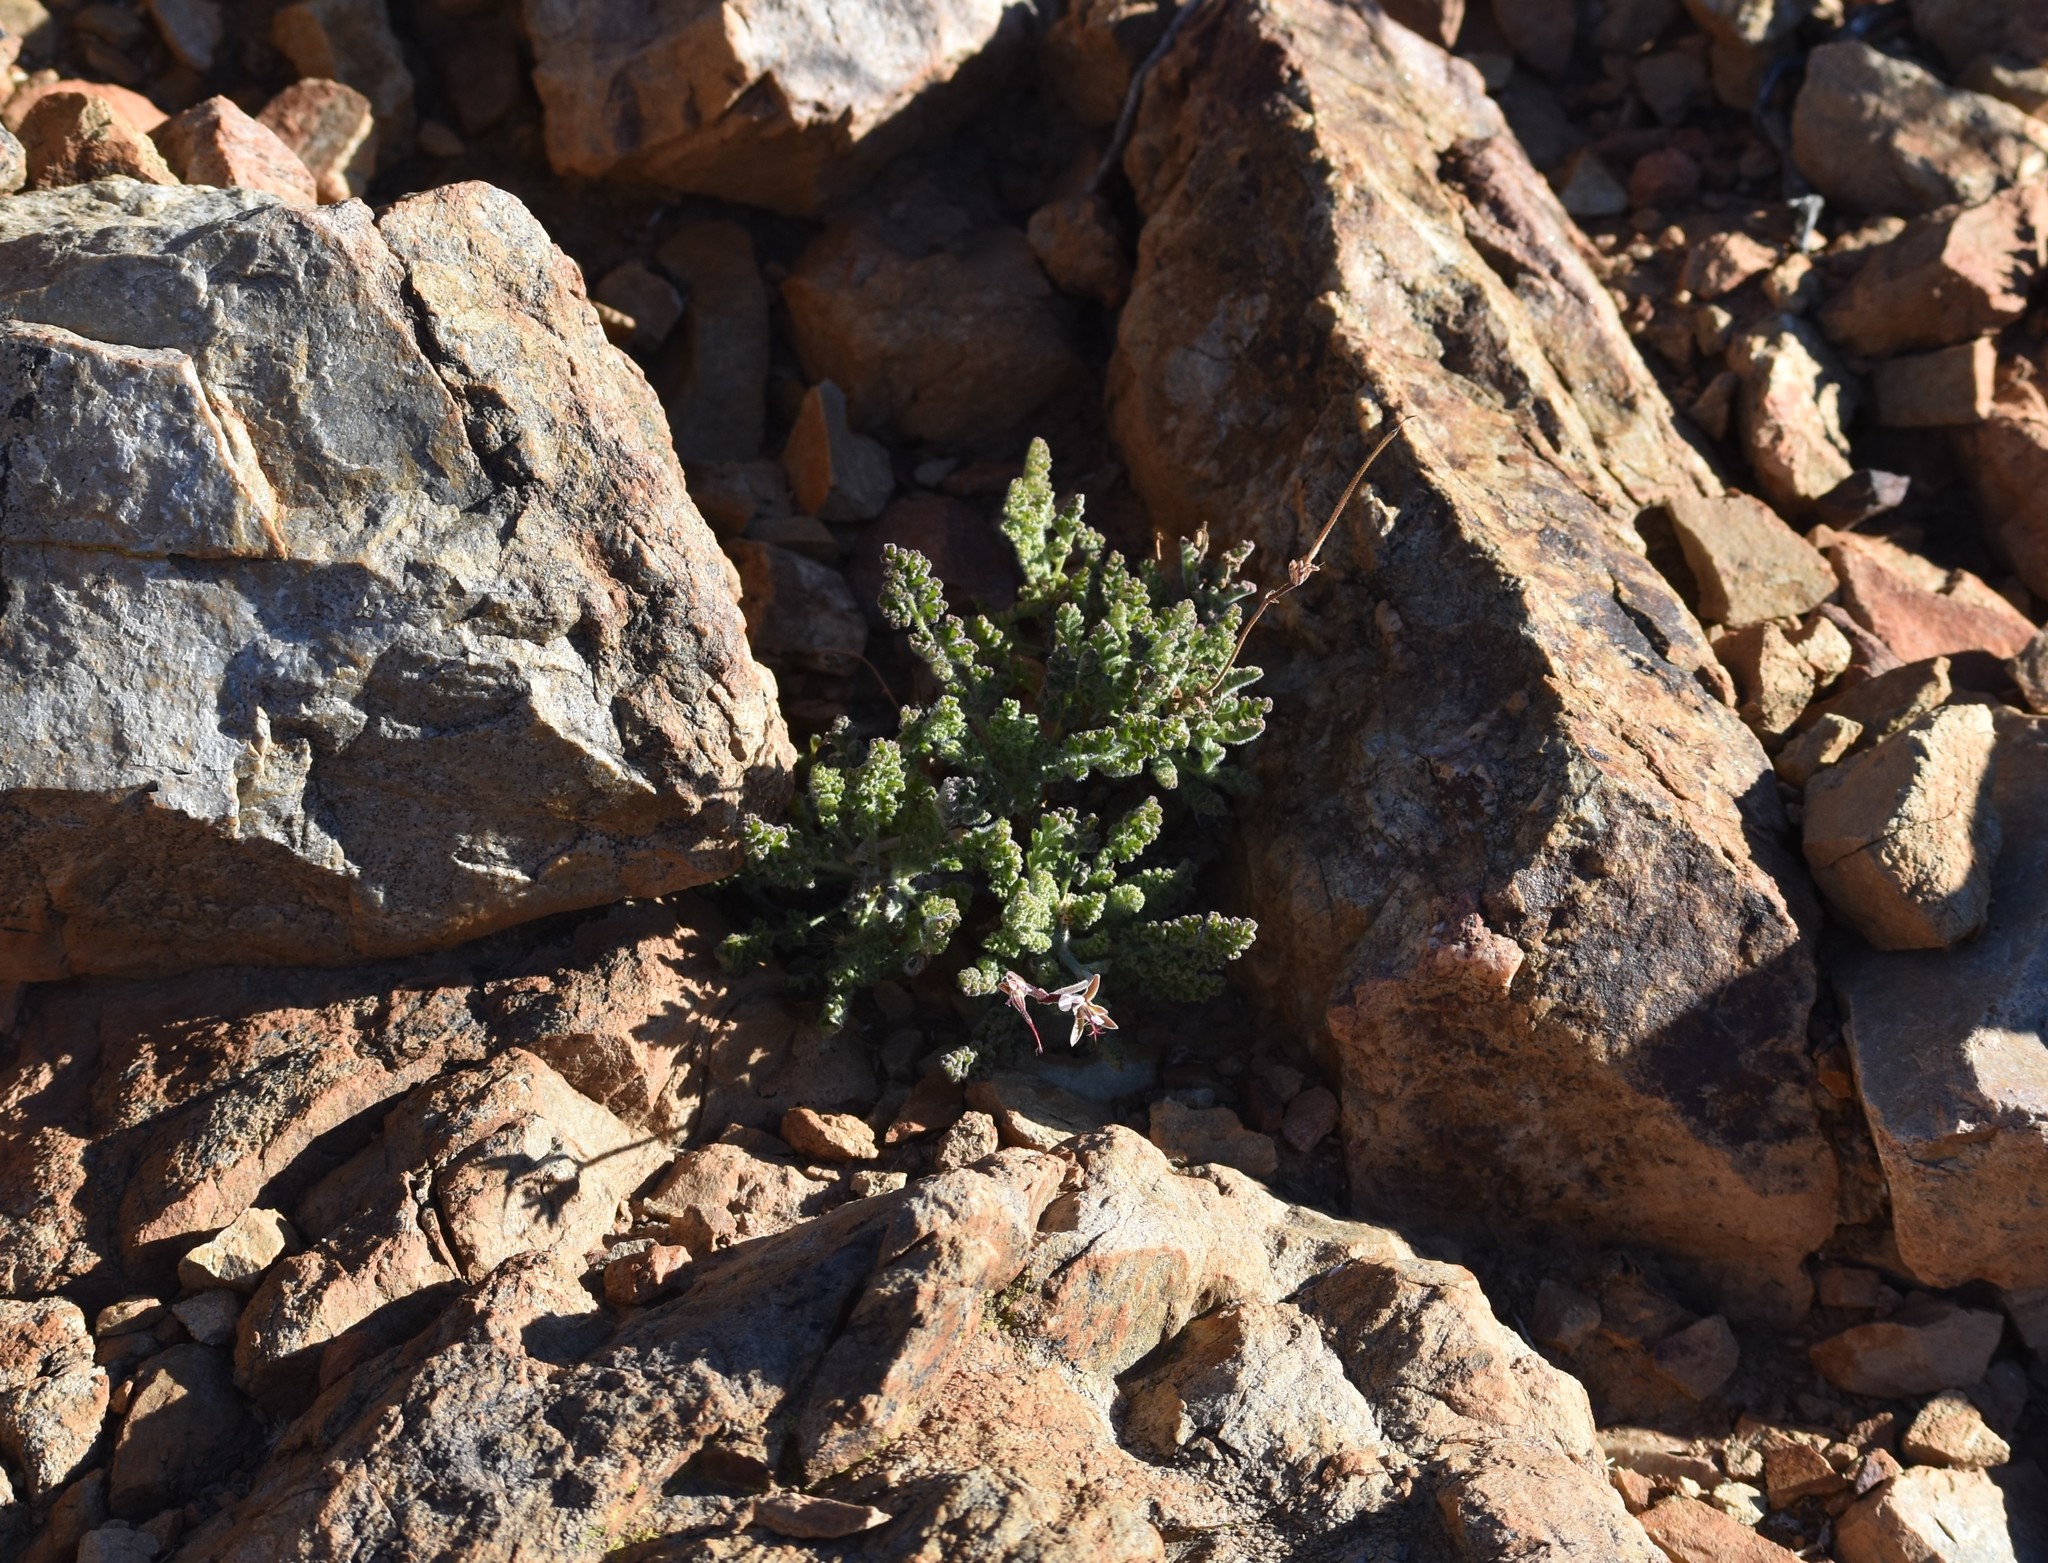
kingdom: Plantae
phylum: Tracheophyta
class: Magnoliopsida
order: Geraniales
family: Geraniaceae
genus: Pelargonium
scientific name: Pelargonium alternans
